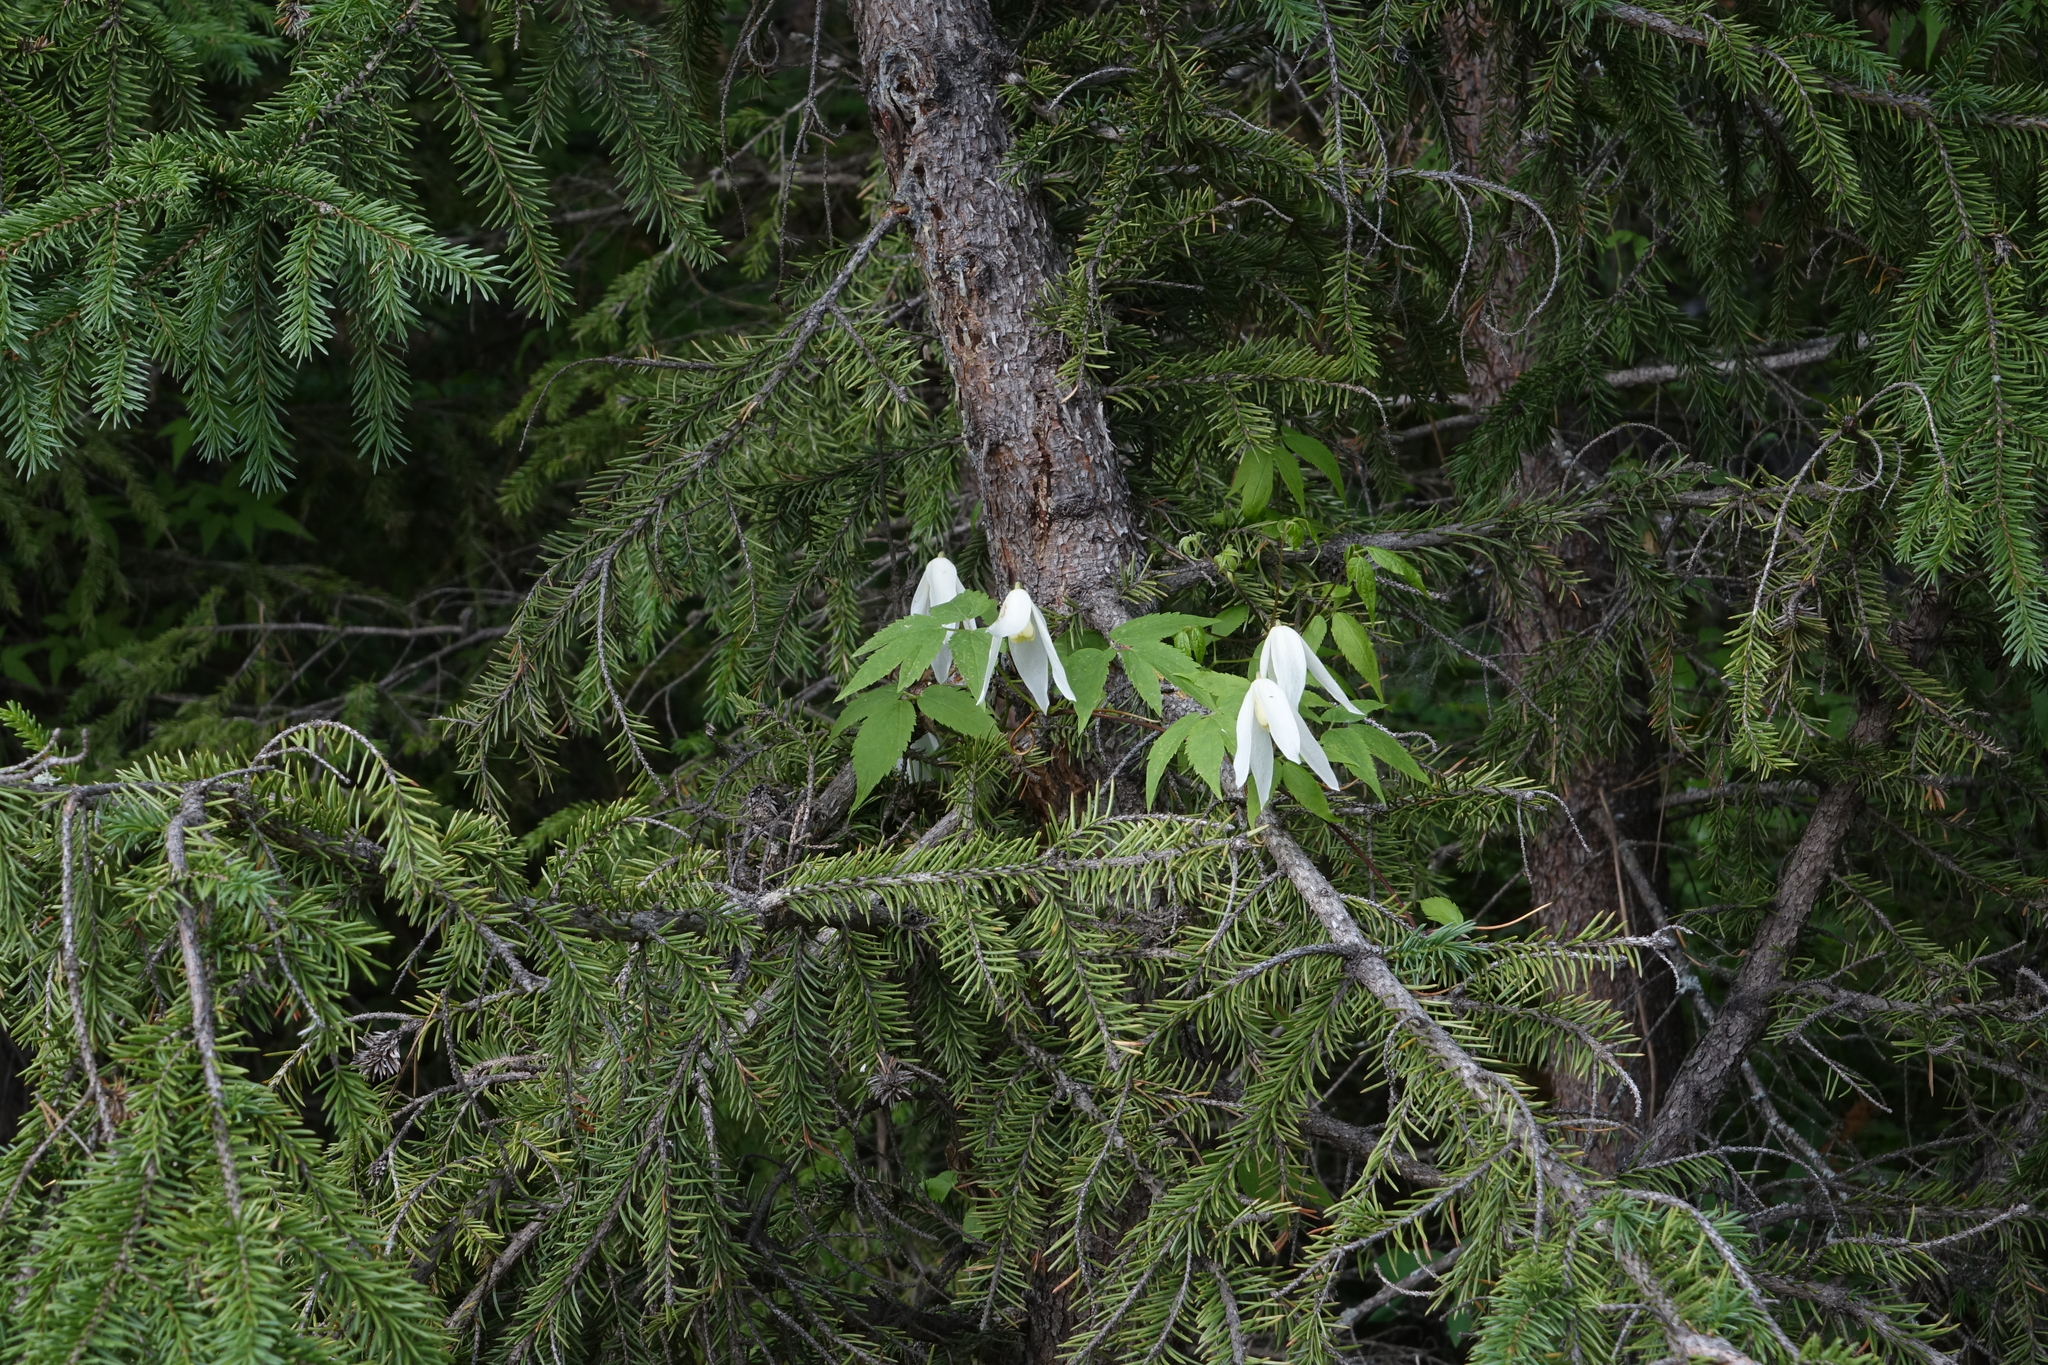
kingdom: Plantae
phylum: Tracheophyta
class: Pinopsida
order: Pinales
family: Pinaceae
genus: Picea
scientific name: Picea obovata
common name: Siberian spruce
